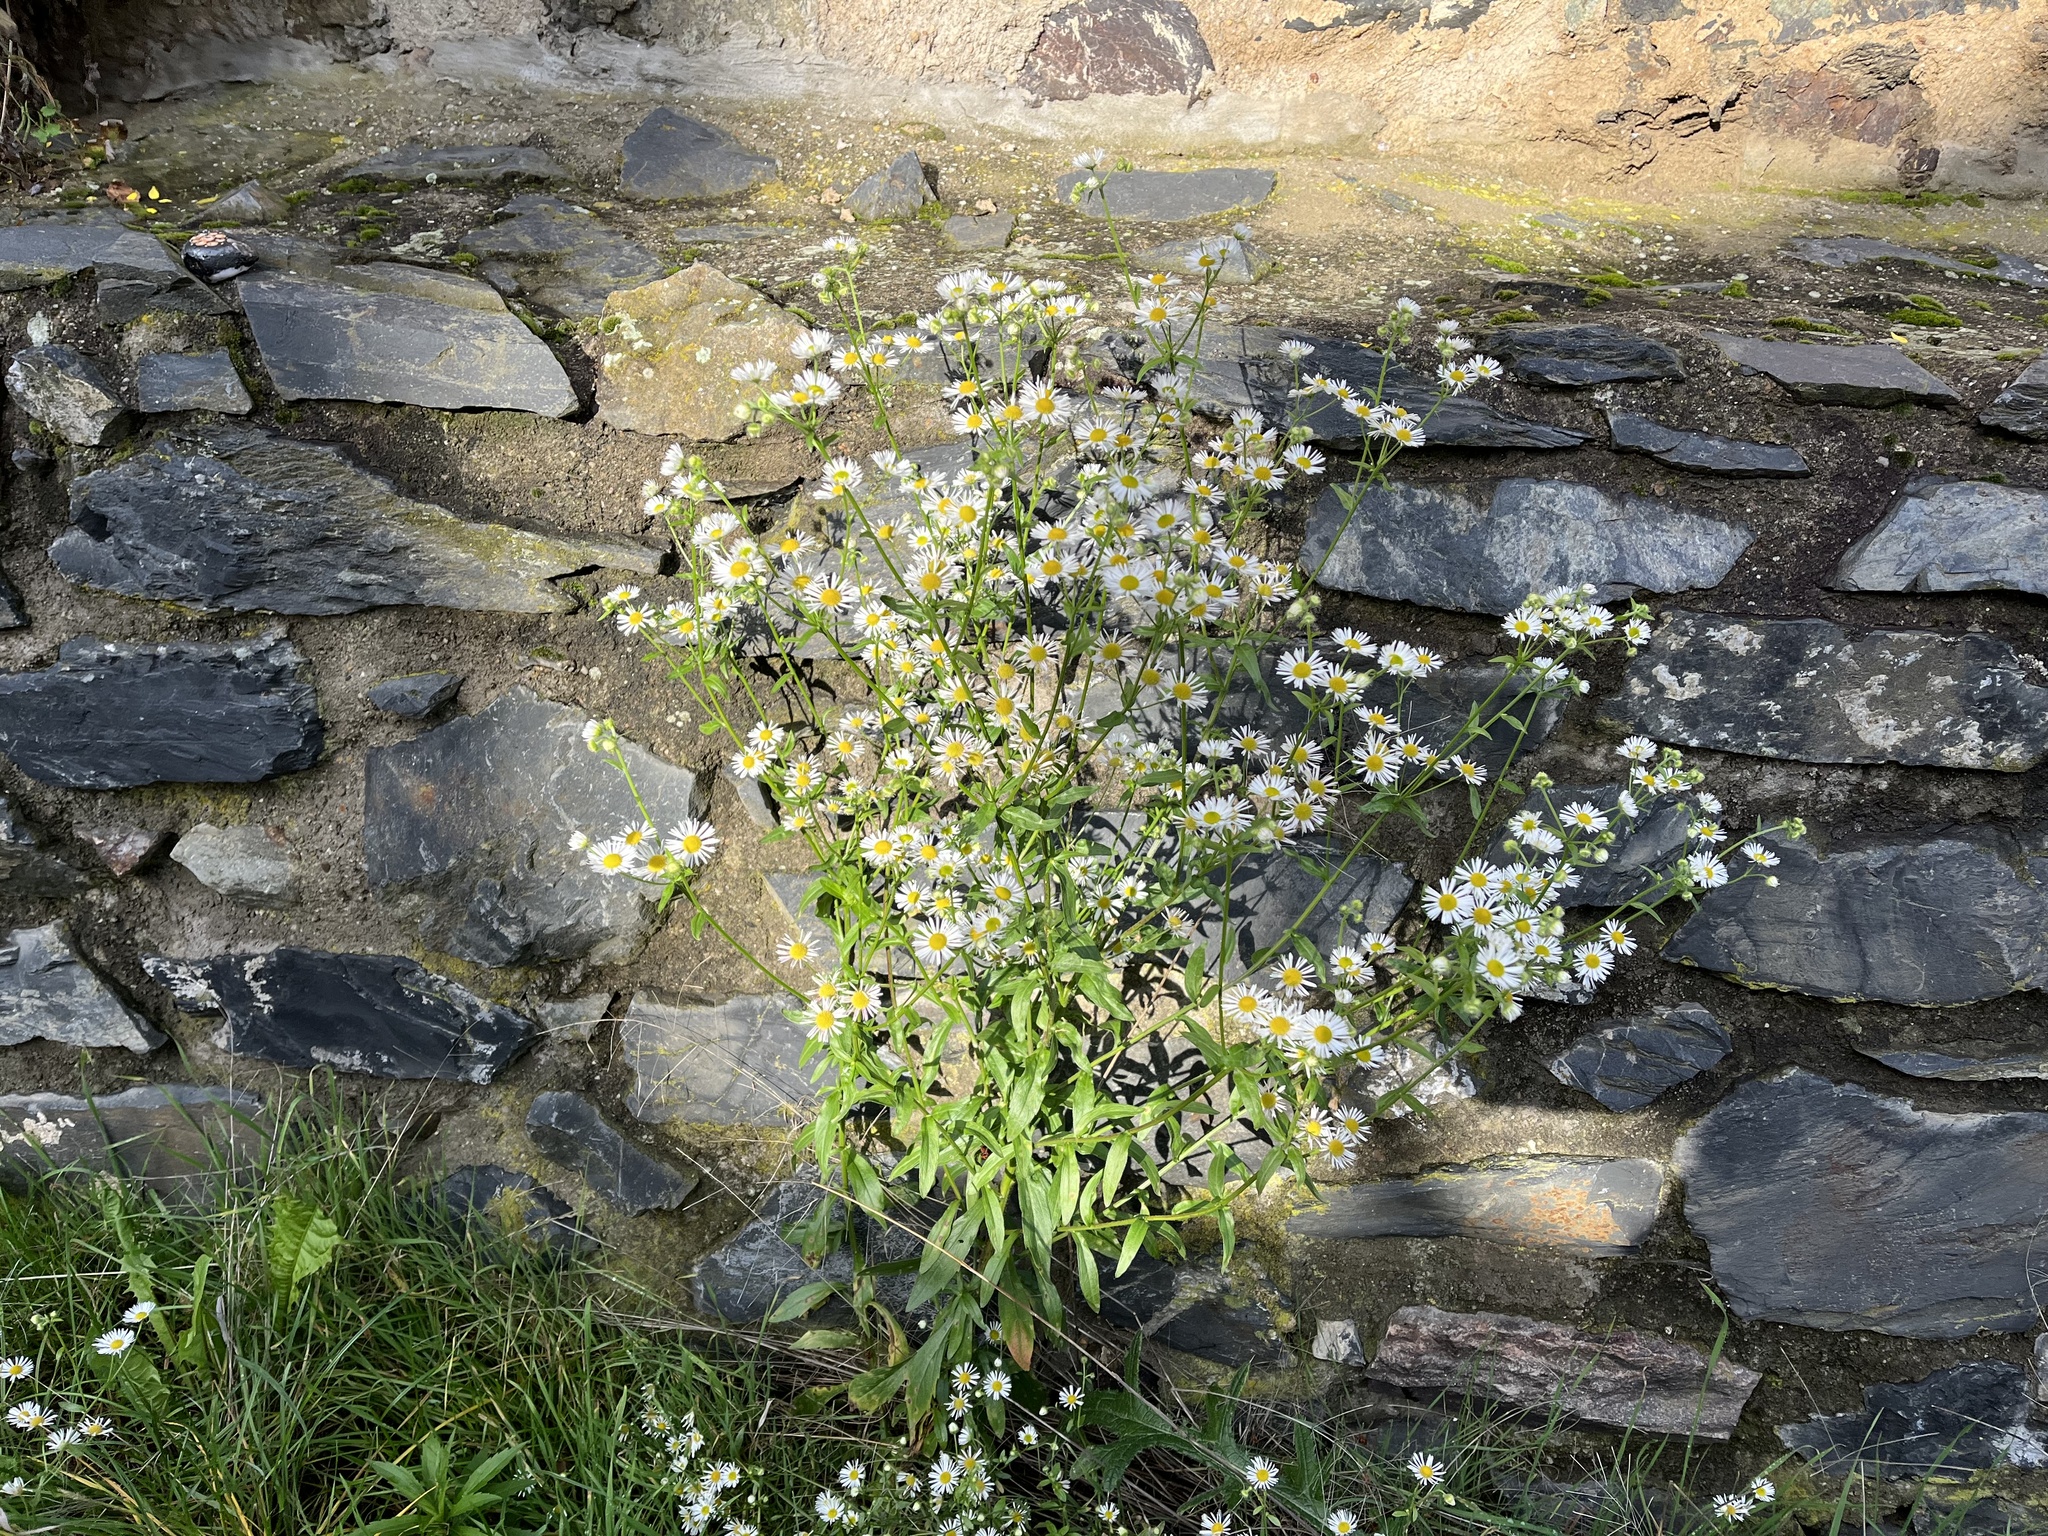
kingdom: Plantae
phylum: Tracheophyta
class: Magnoliopsida
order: Asterales
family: Asteraceae
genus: Erigeron
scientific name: Erigeron annuus
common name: Tall fleabane
